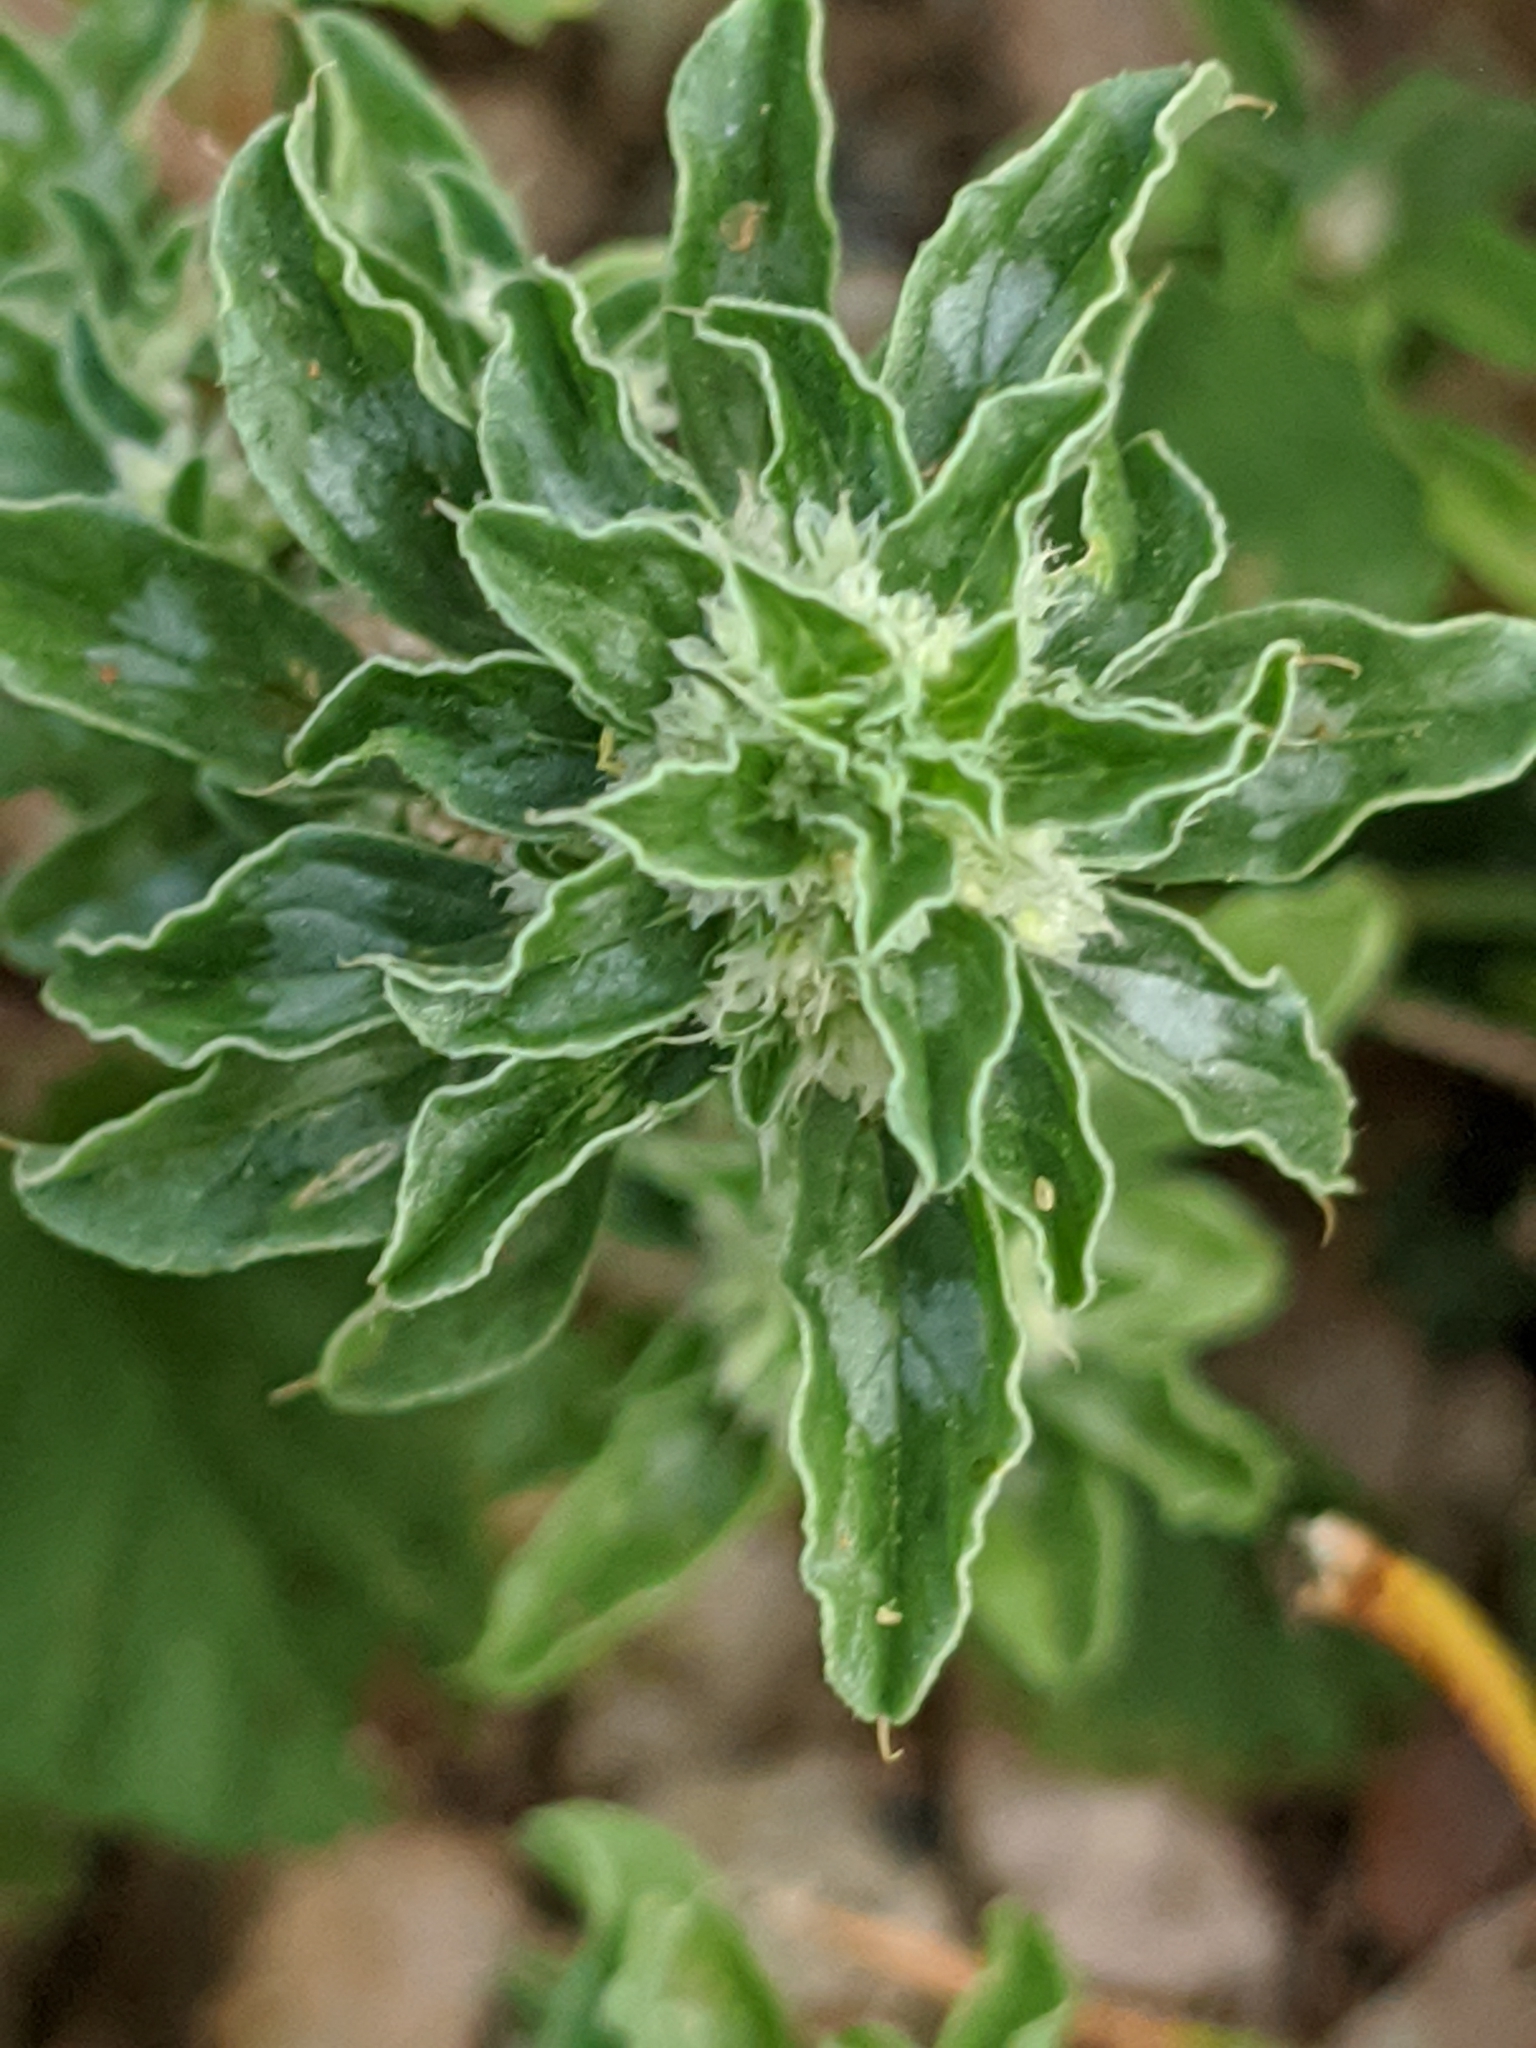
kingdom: Plantae
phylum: Tracheophyta
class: Magnoliopsida
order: Caryophyllales
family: Amaranthaceae
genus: Amaranthus
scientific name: Amaranthus polygonoides
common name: Tropical amaranth
